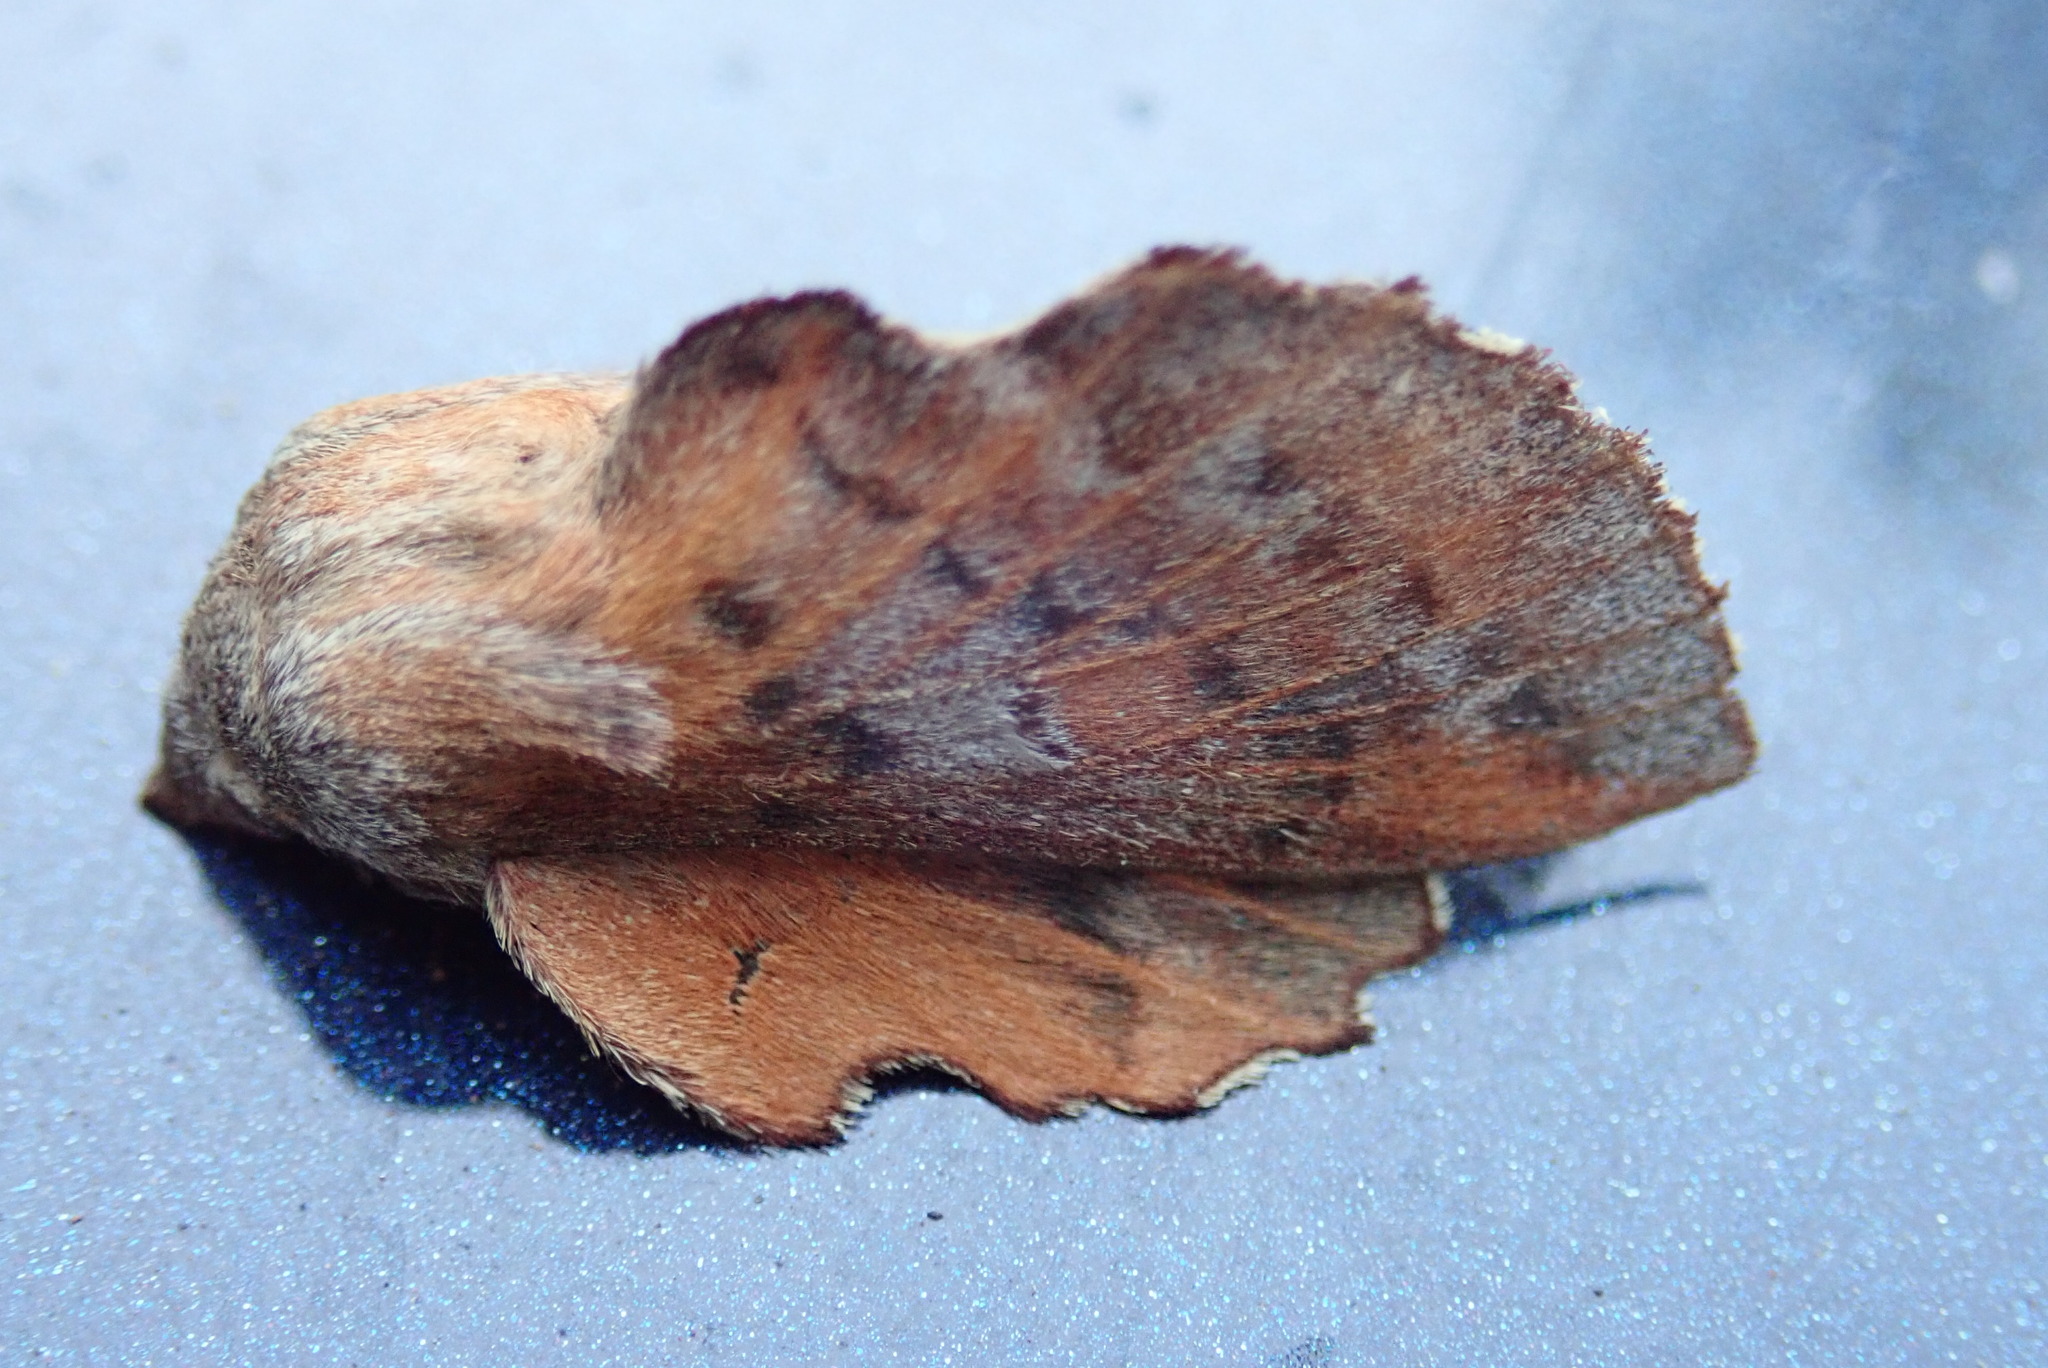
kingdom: Animalia
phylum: Arthropoda
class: Insecta
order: Lepidoptera
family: Lasiocampidae
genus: Phyllodesma
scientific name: Phyllodesma americana
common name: American lappet moth
